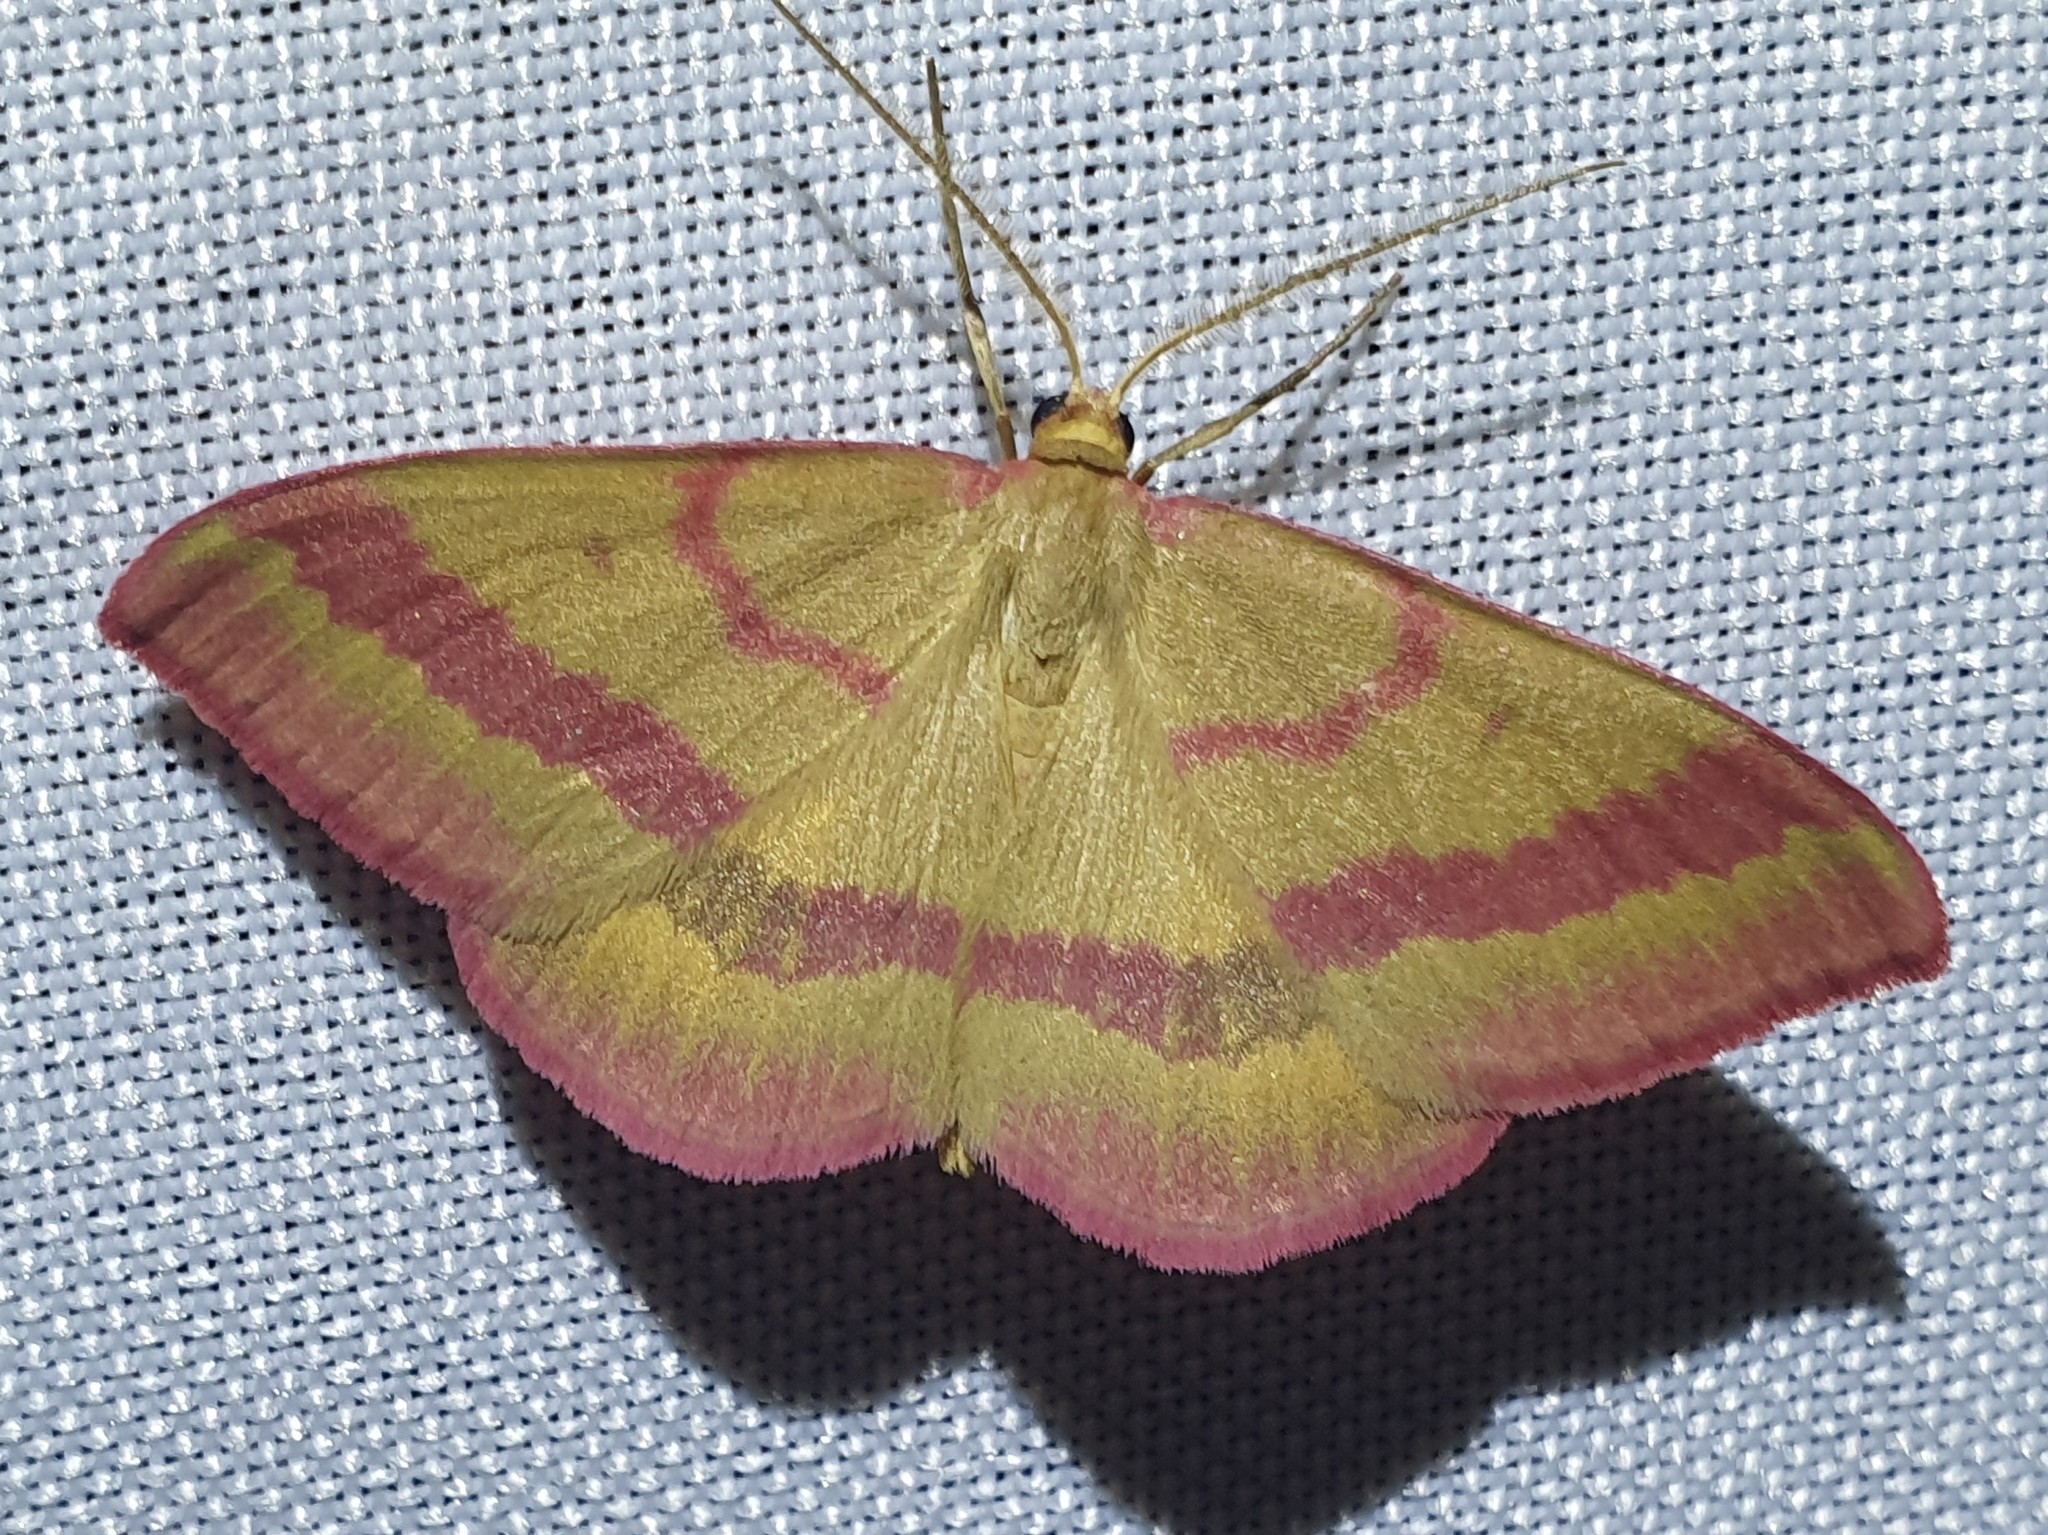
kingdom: Animalia
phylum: Arthropoda
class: Insecta
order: Lepidoptera
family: Geometridae
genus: Rhodostrophia
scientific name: Rhodostrophia calabra
